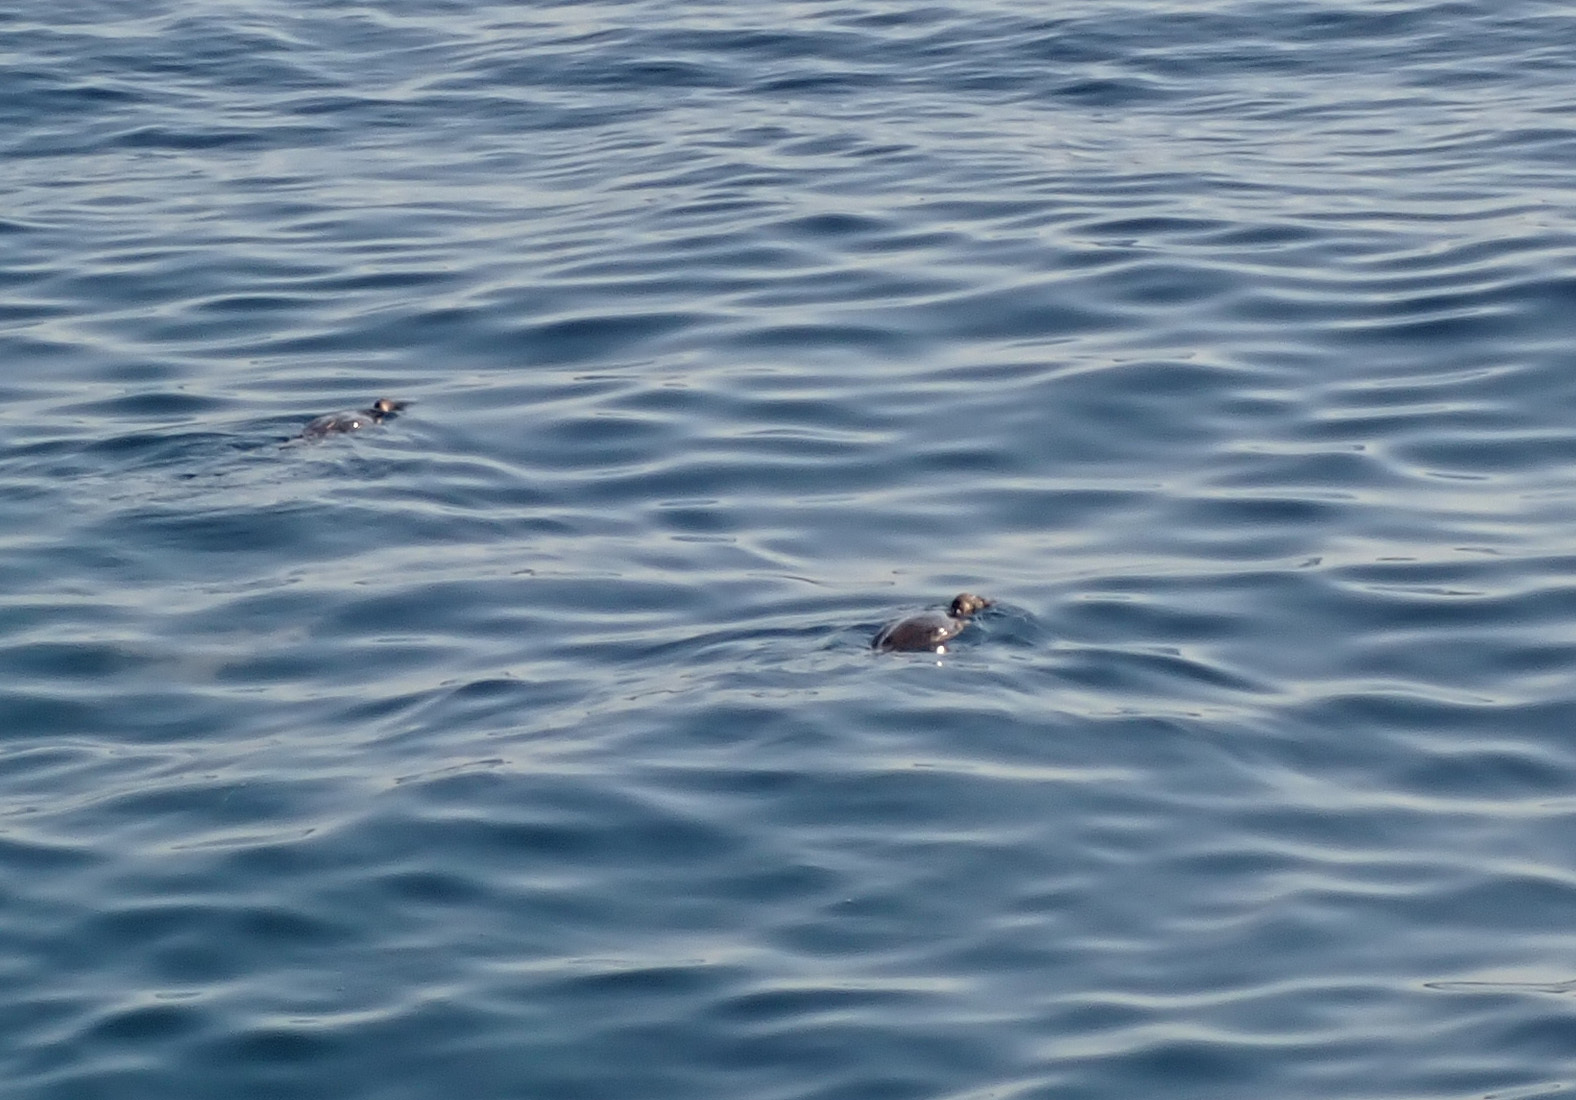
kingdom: Animalia
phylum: Chordata
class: Aves
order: Suliformes
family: Phalacrocoracidae
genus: Phalacrocorax
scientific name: Phalacrocorax aristotelis
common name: European shag
